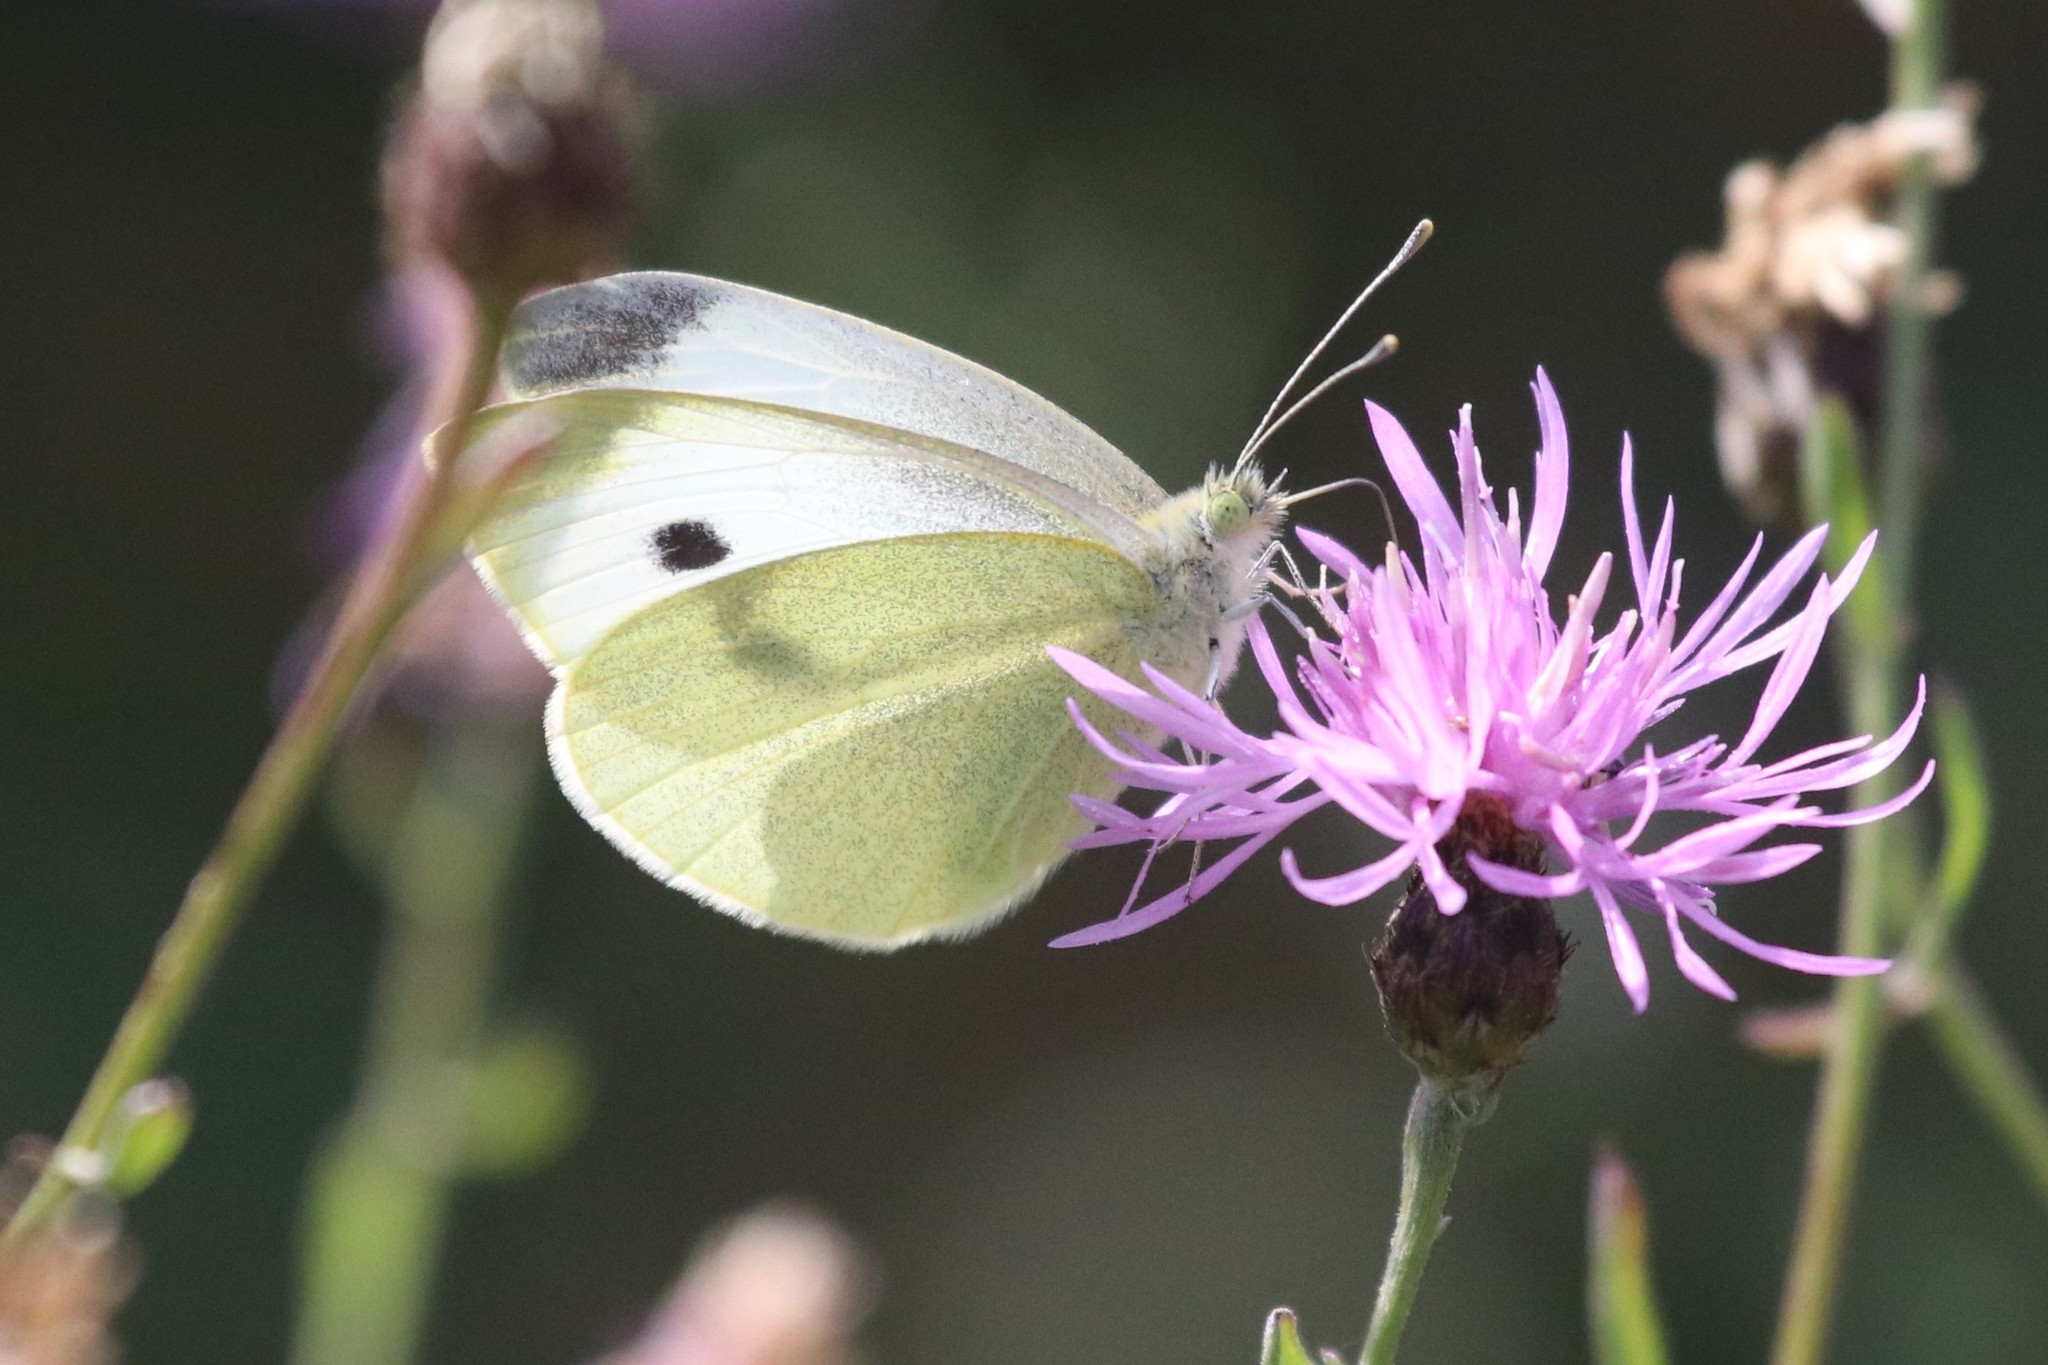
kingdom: Animalia
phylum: Arthropoda
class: Insecta
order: Lepidoptera
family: Pieridae
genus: Pieris
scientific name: Pieris rapae
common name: Small white
